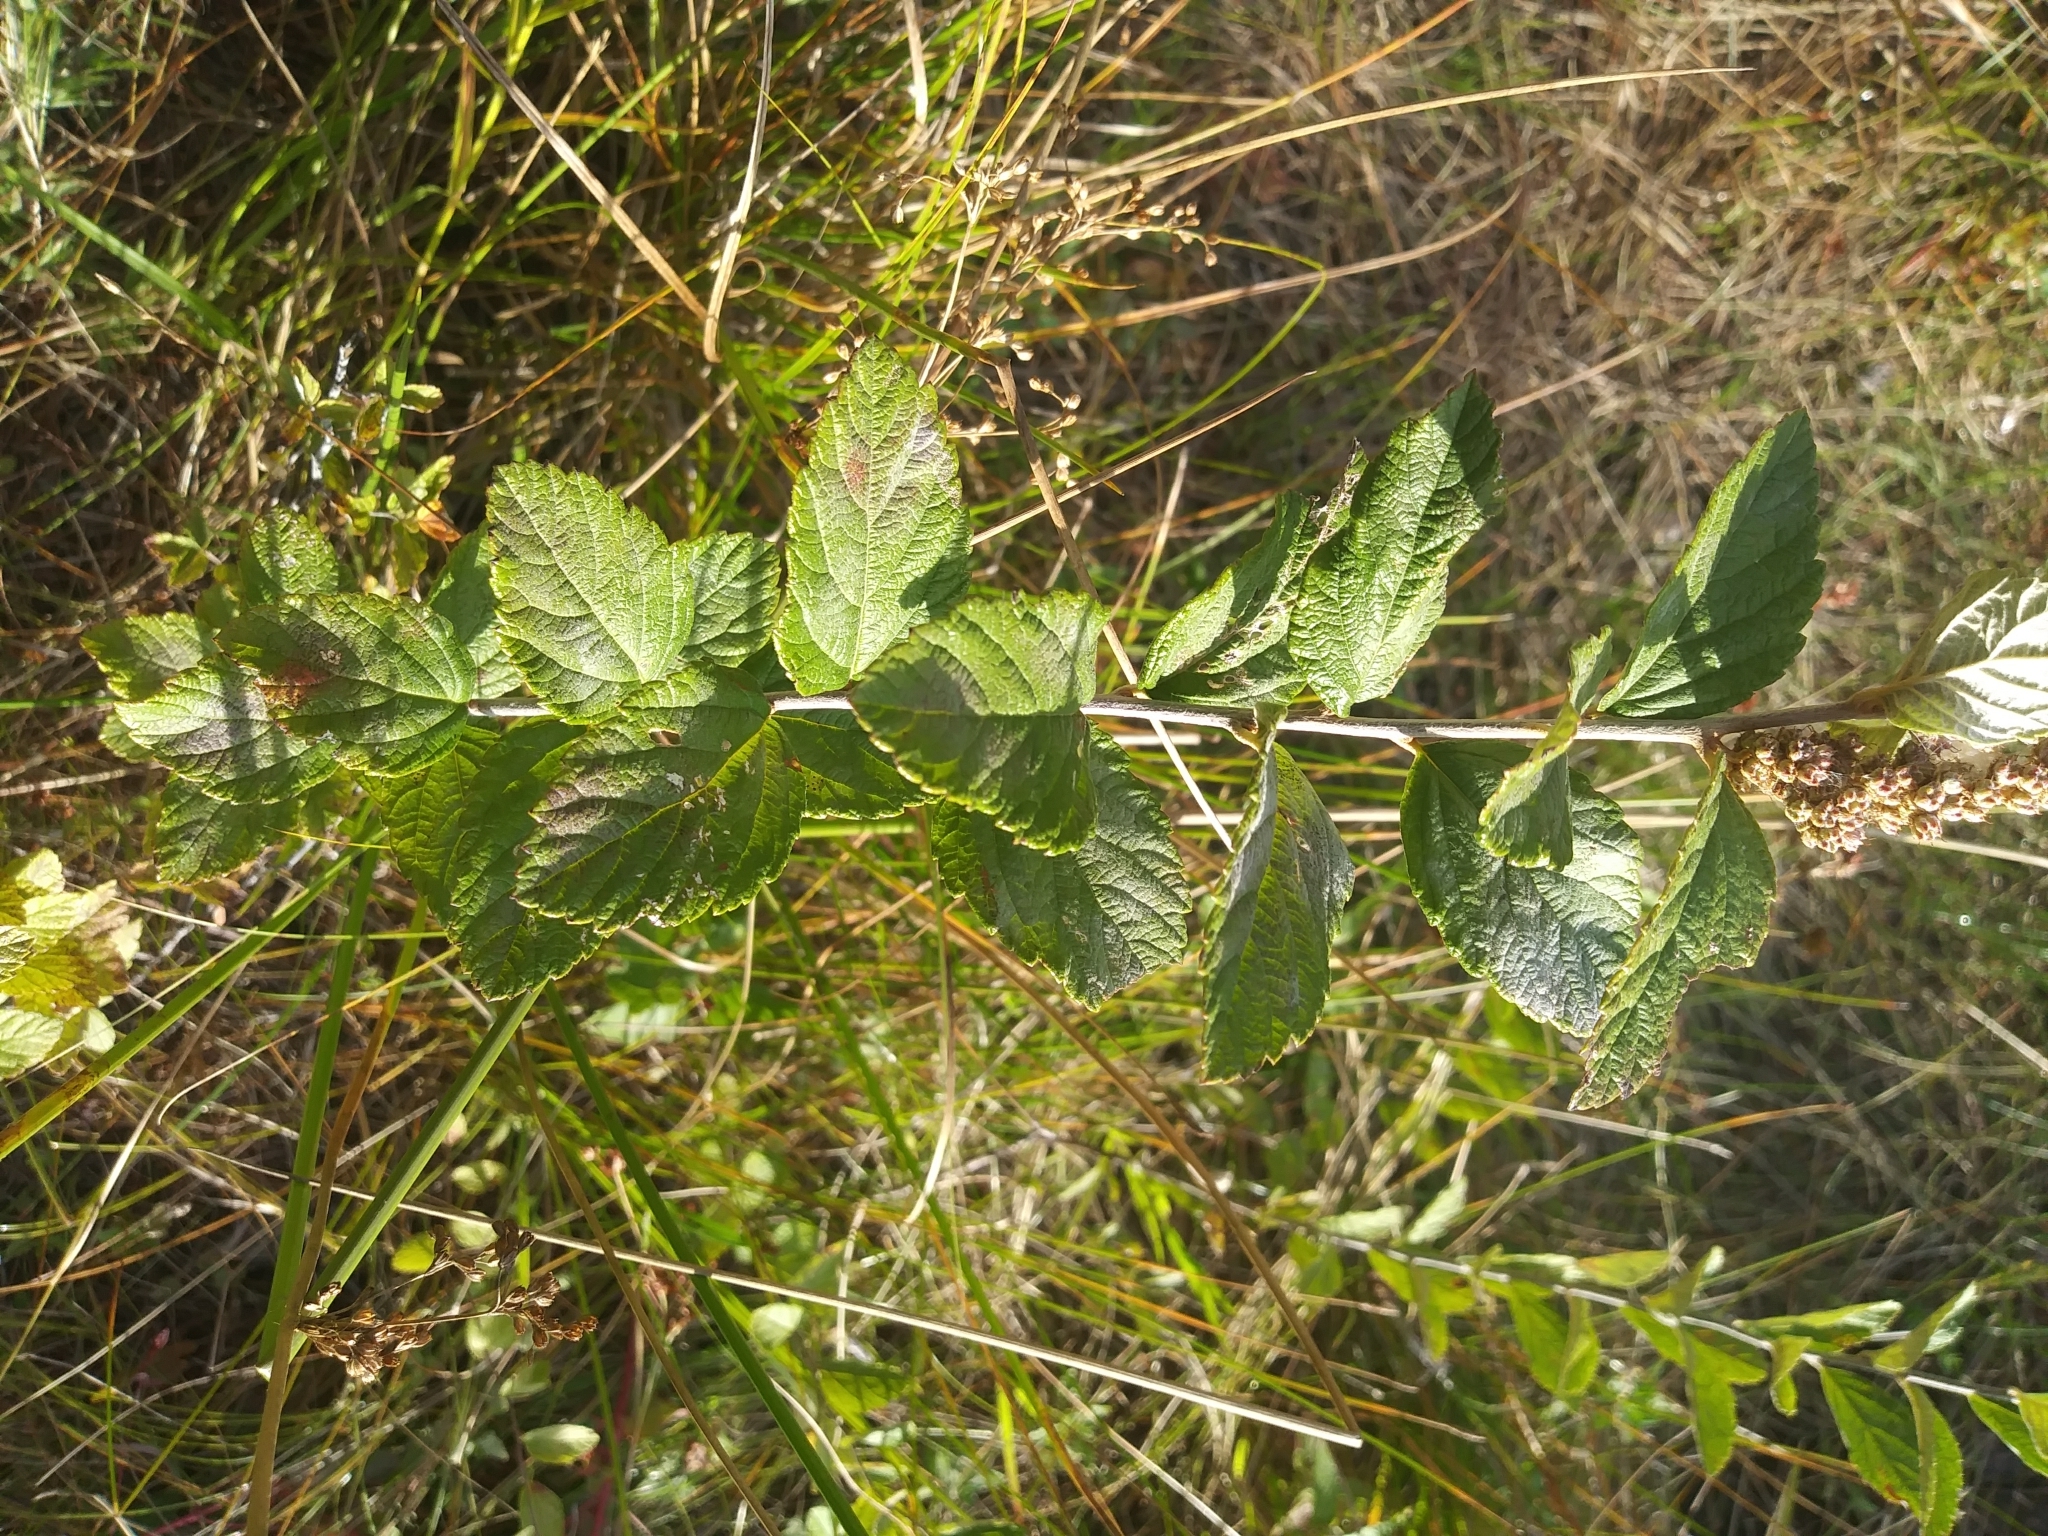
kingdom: Plantae
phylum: Tracheophyta
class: Magnoliopsida
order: Rosales
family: Rosaceae
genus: Spiraea
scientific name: Spiraea tomentosa
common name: Hardhack
